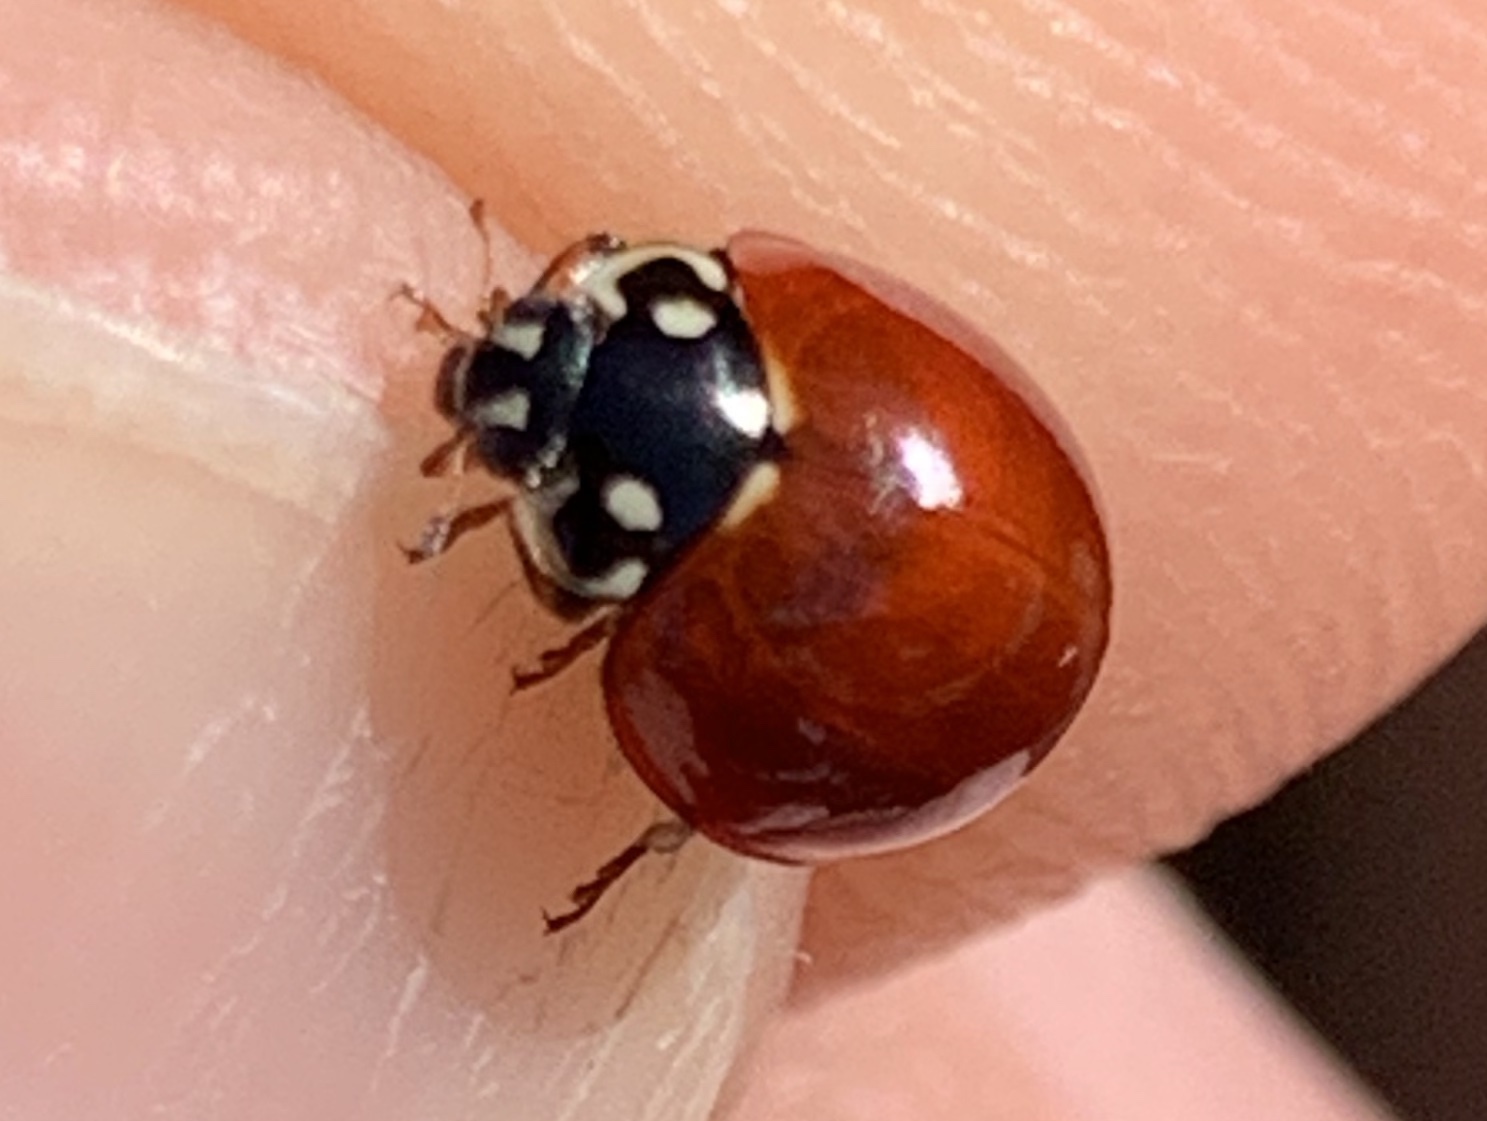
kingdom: Animalia
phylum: Arthropoda
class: Insecta
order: Coleoptera
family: Coccinellidae
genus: Cycloneda
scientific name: Cycloneda sanguinea
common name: Ladybird beetle
